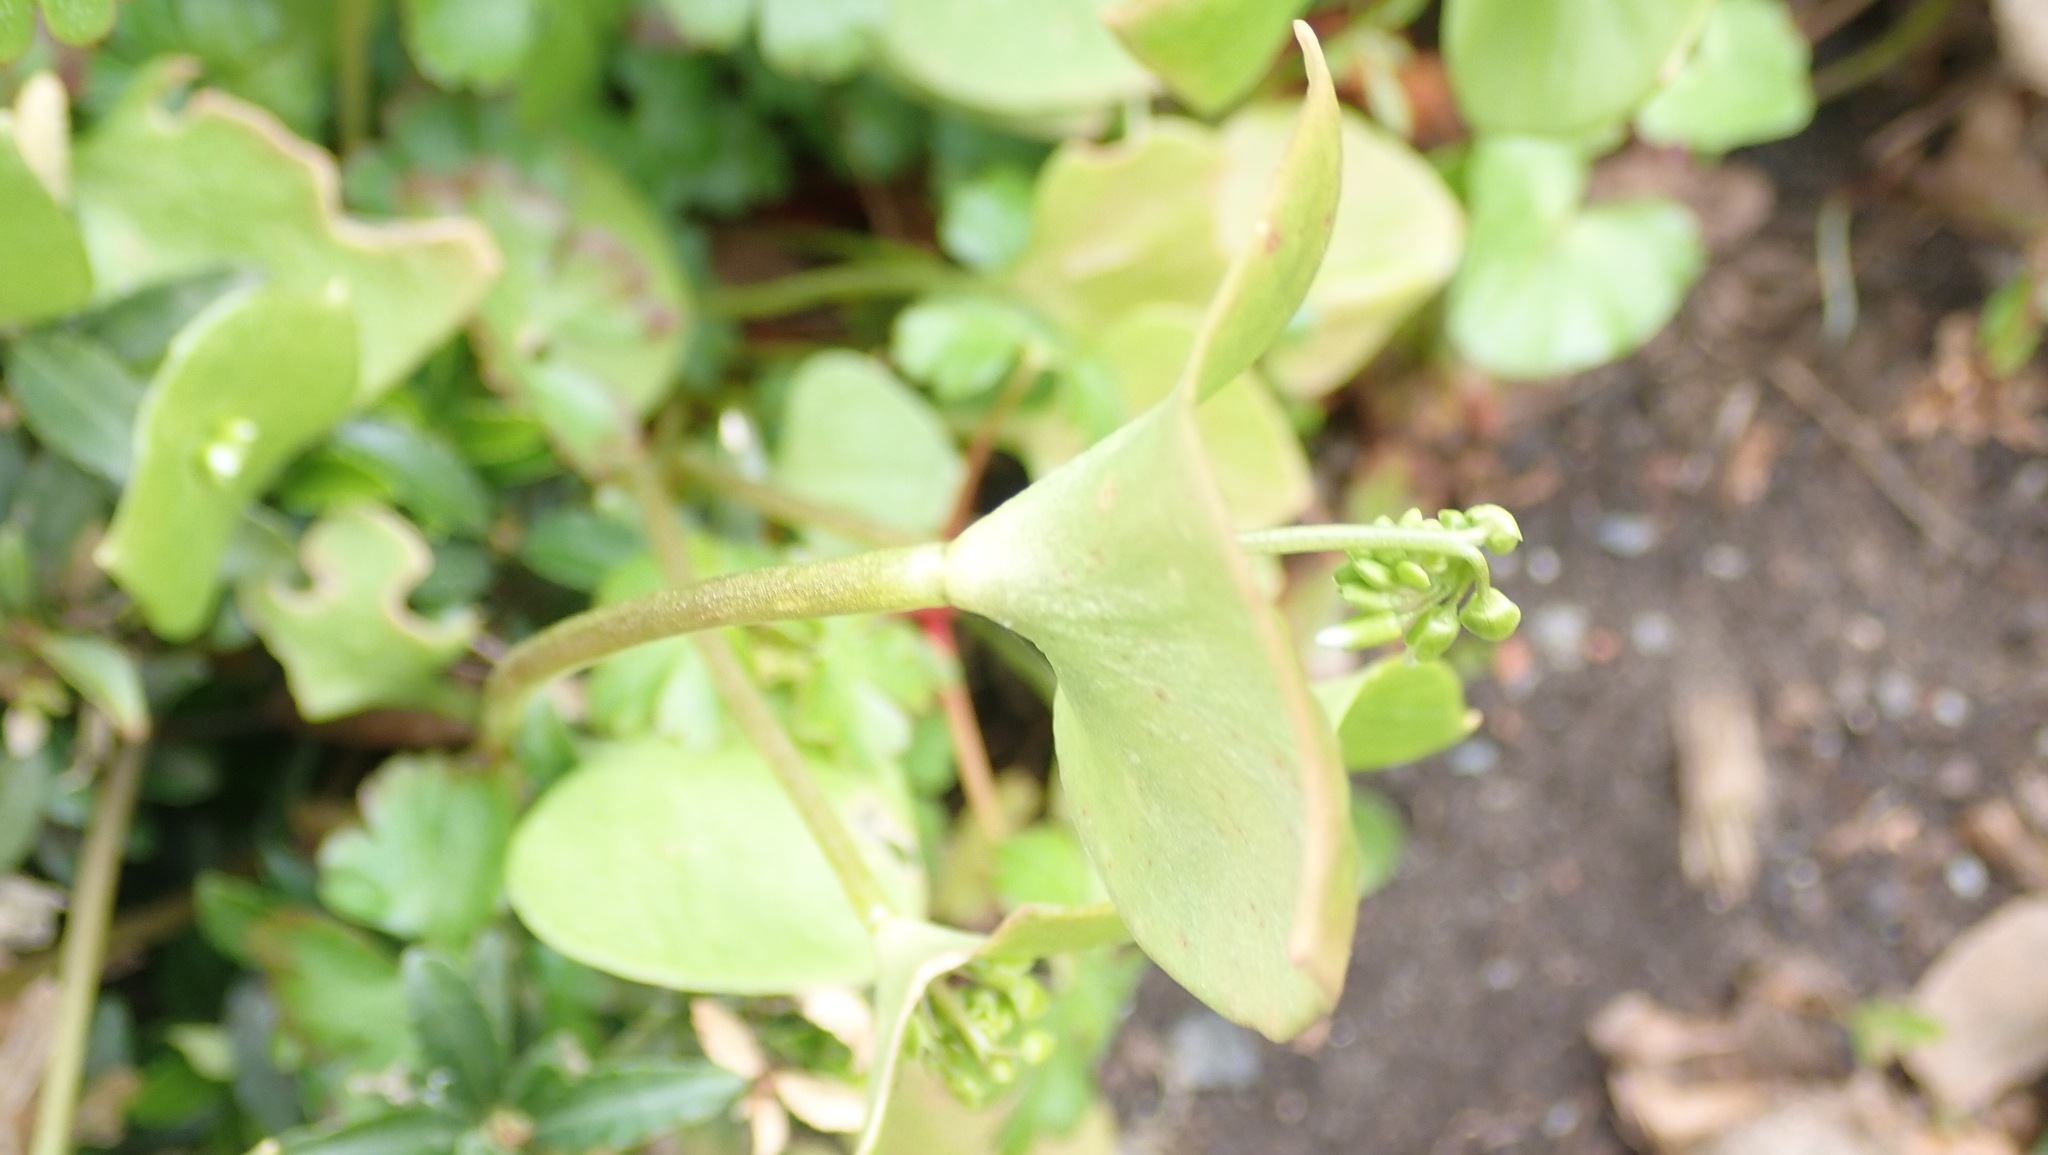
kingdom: Plantae
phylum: Tracheophyta
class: Magnoliopsida
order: Caryophyllales
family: Montiaceae
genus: Claytonia
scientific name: Claytonia perfoliata
